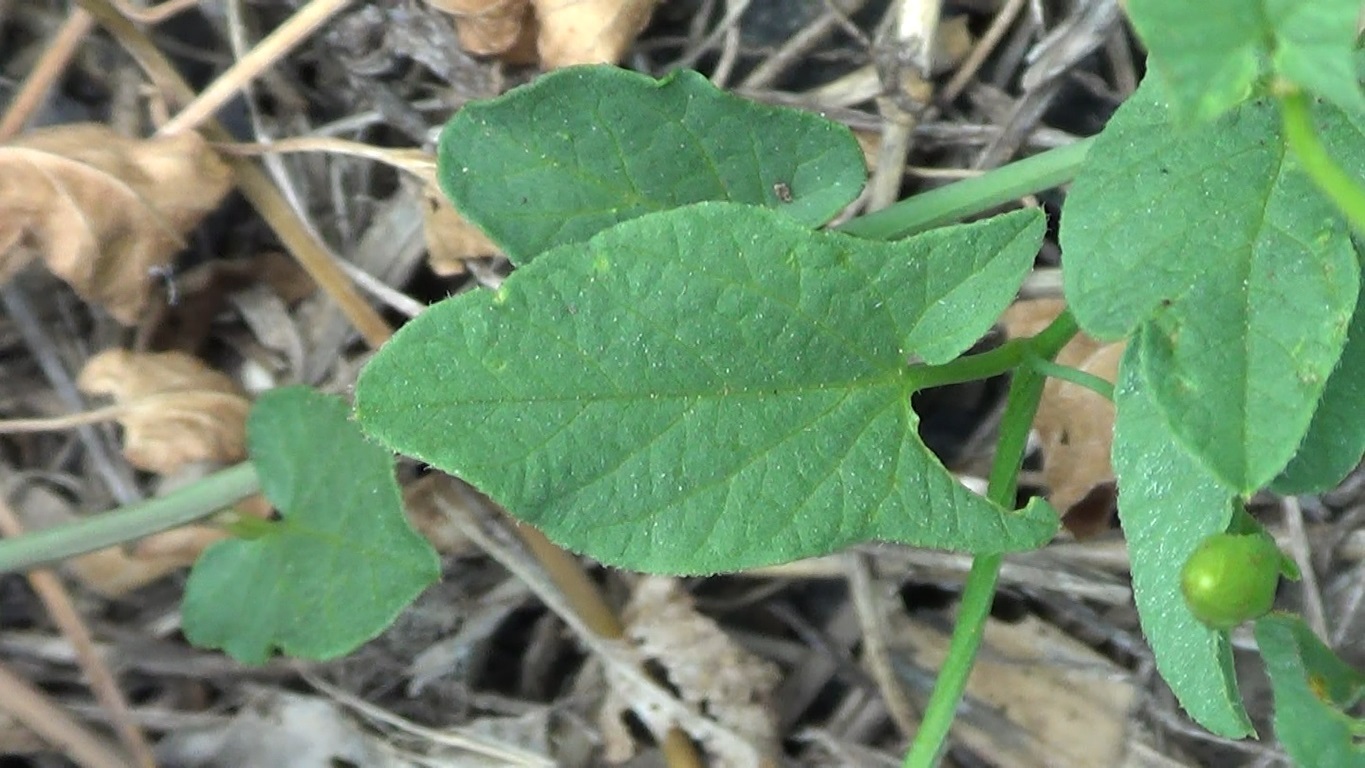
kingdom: Plantae
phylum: Tracheophyta
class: Magnoliopsida
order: Solanales
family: Convolvulaceae
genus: Convolvulus
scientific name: Convolvulus arvensis
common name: Field bindweed
